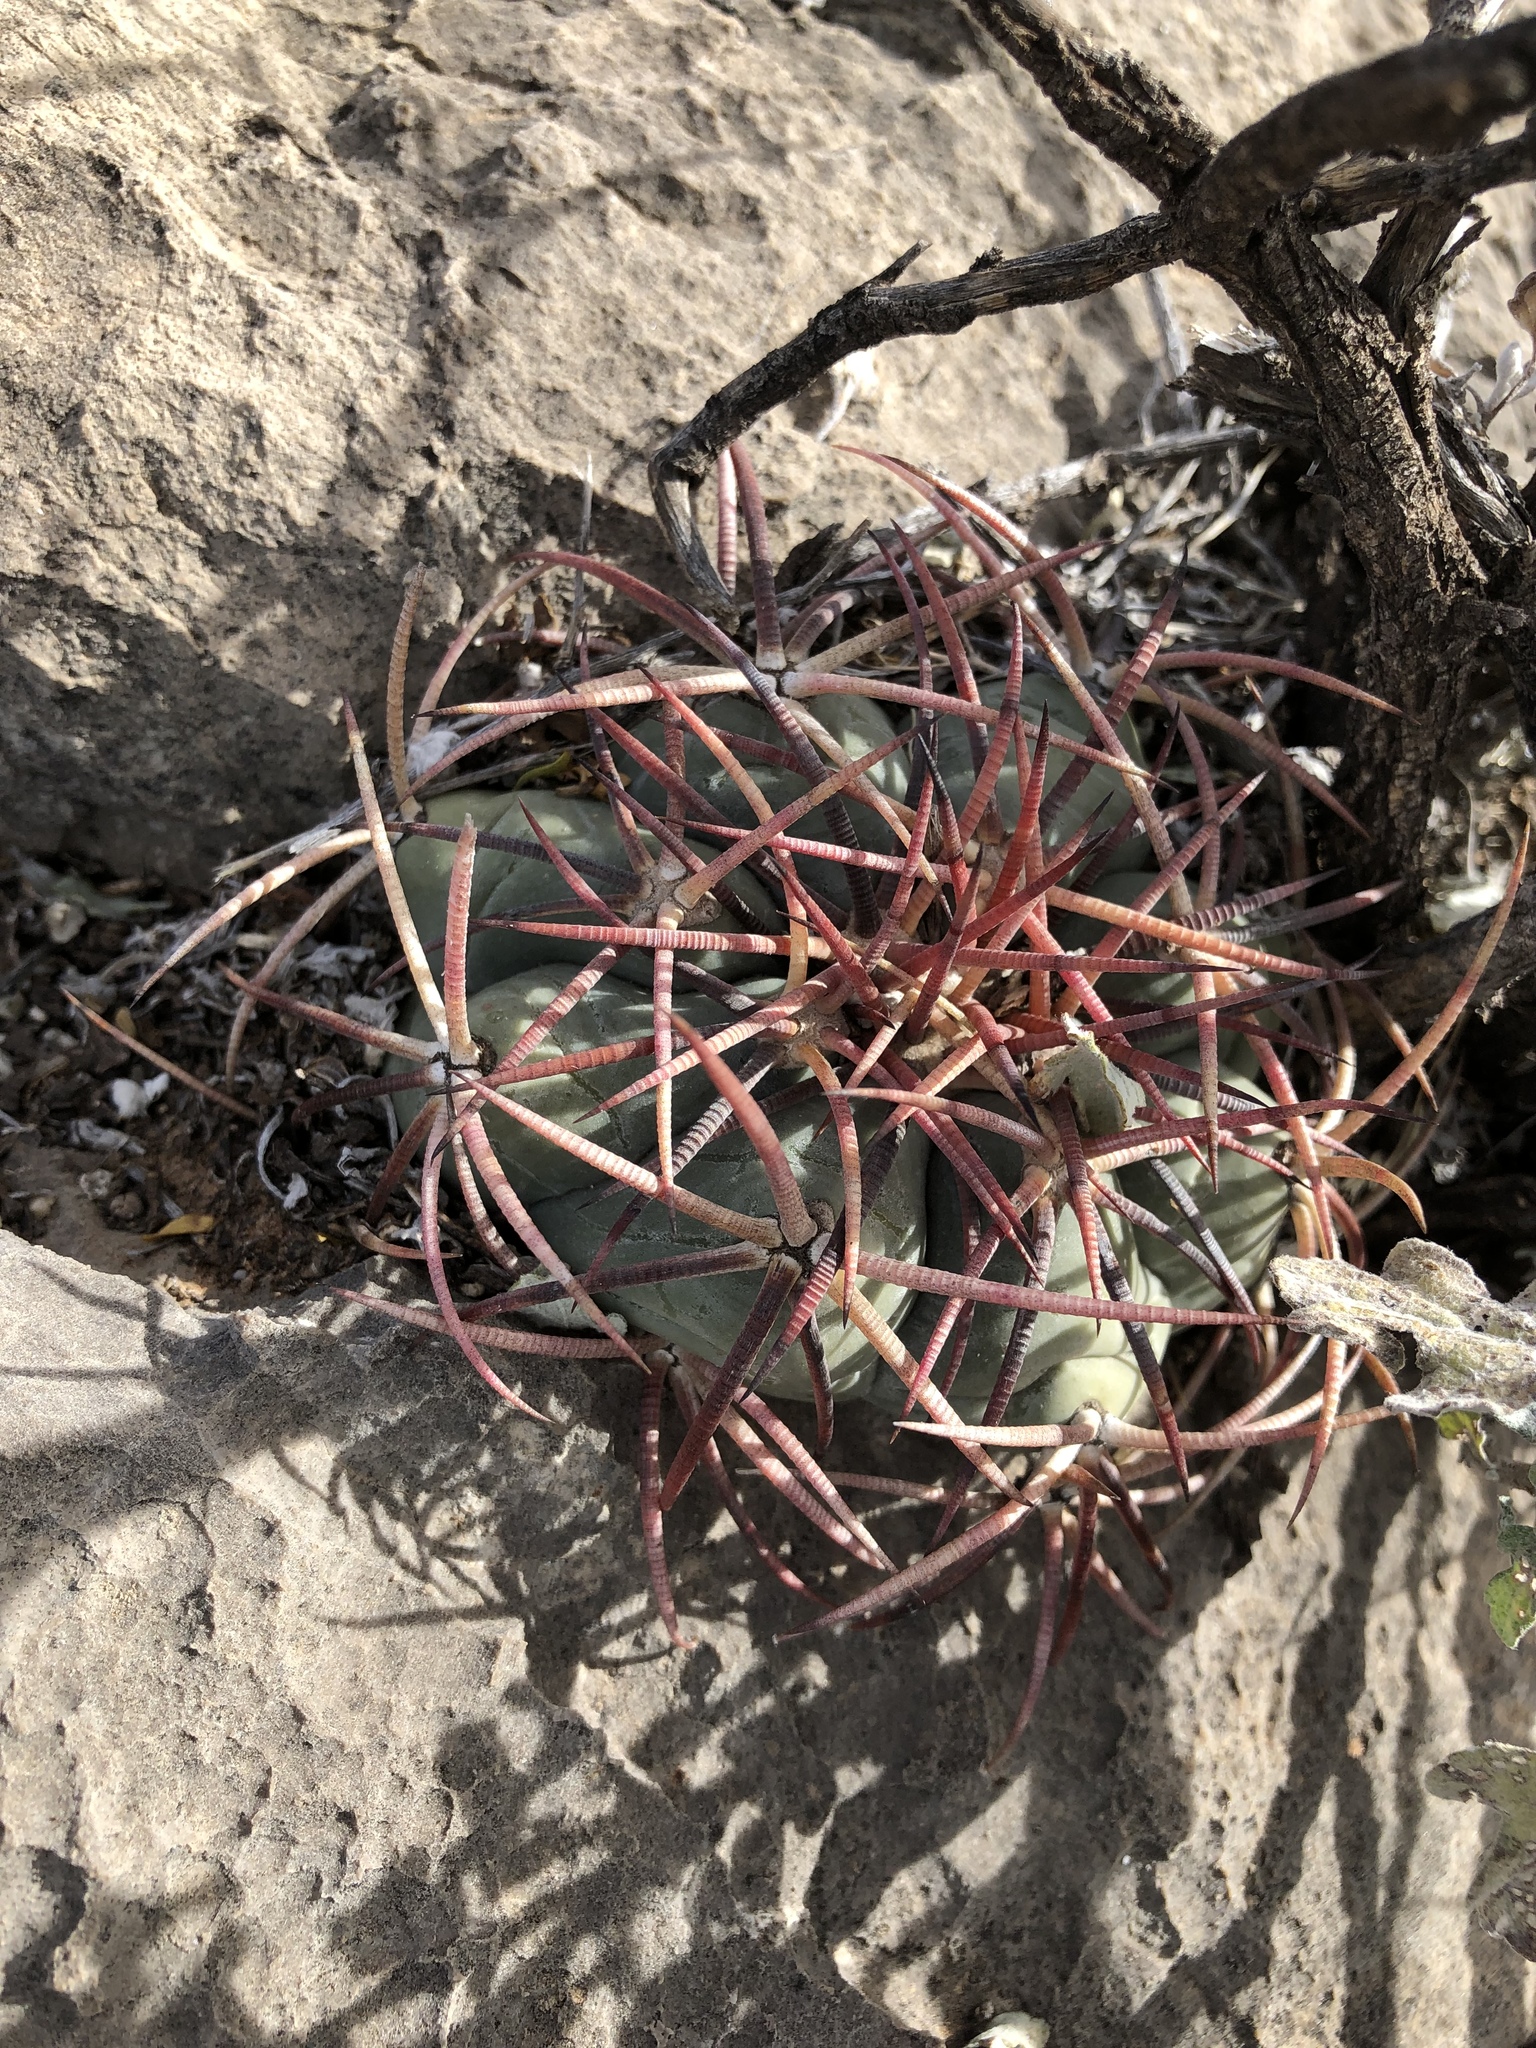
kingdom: Plantae
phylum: Tracheophyta
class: Magnoliopsida
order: Caryophyllales
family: Cactaceae
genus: Echinocactus
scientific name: Echinocactus horizonthalonius
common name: Devilshead
